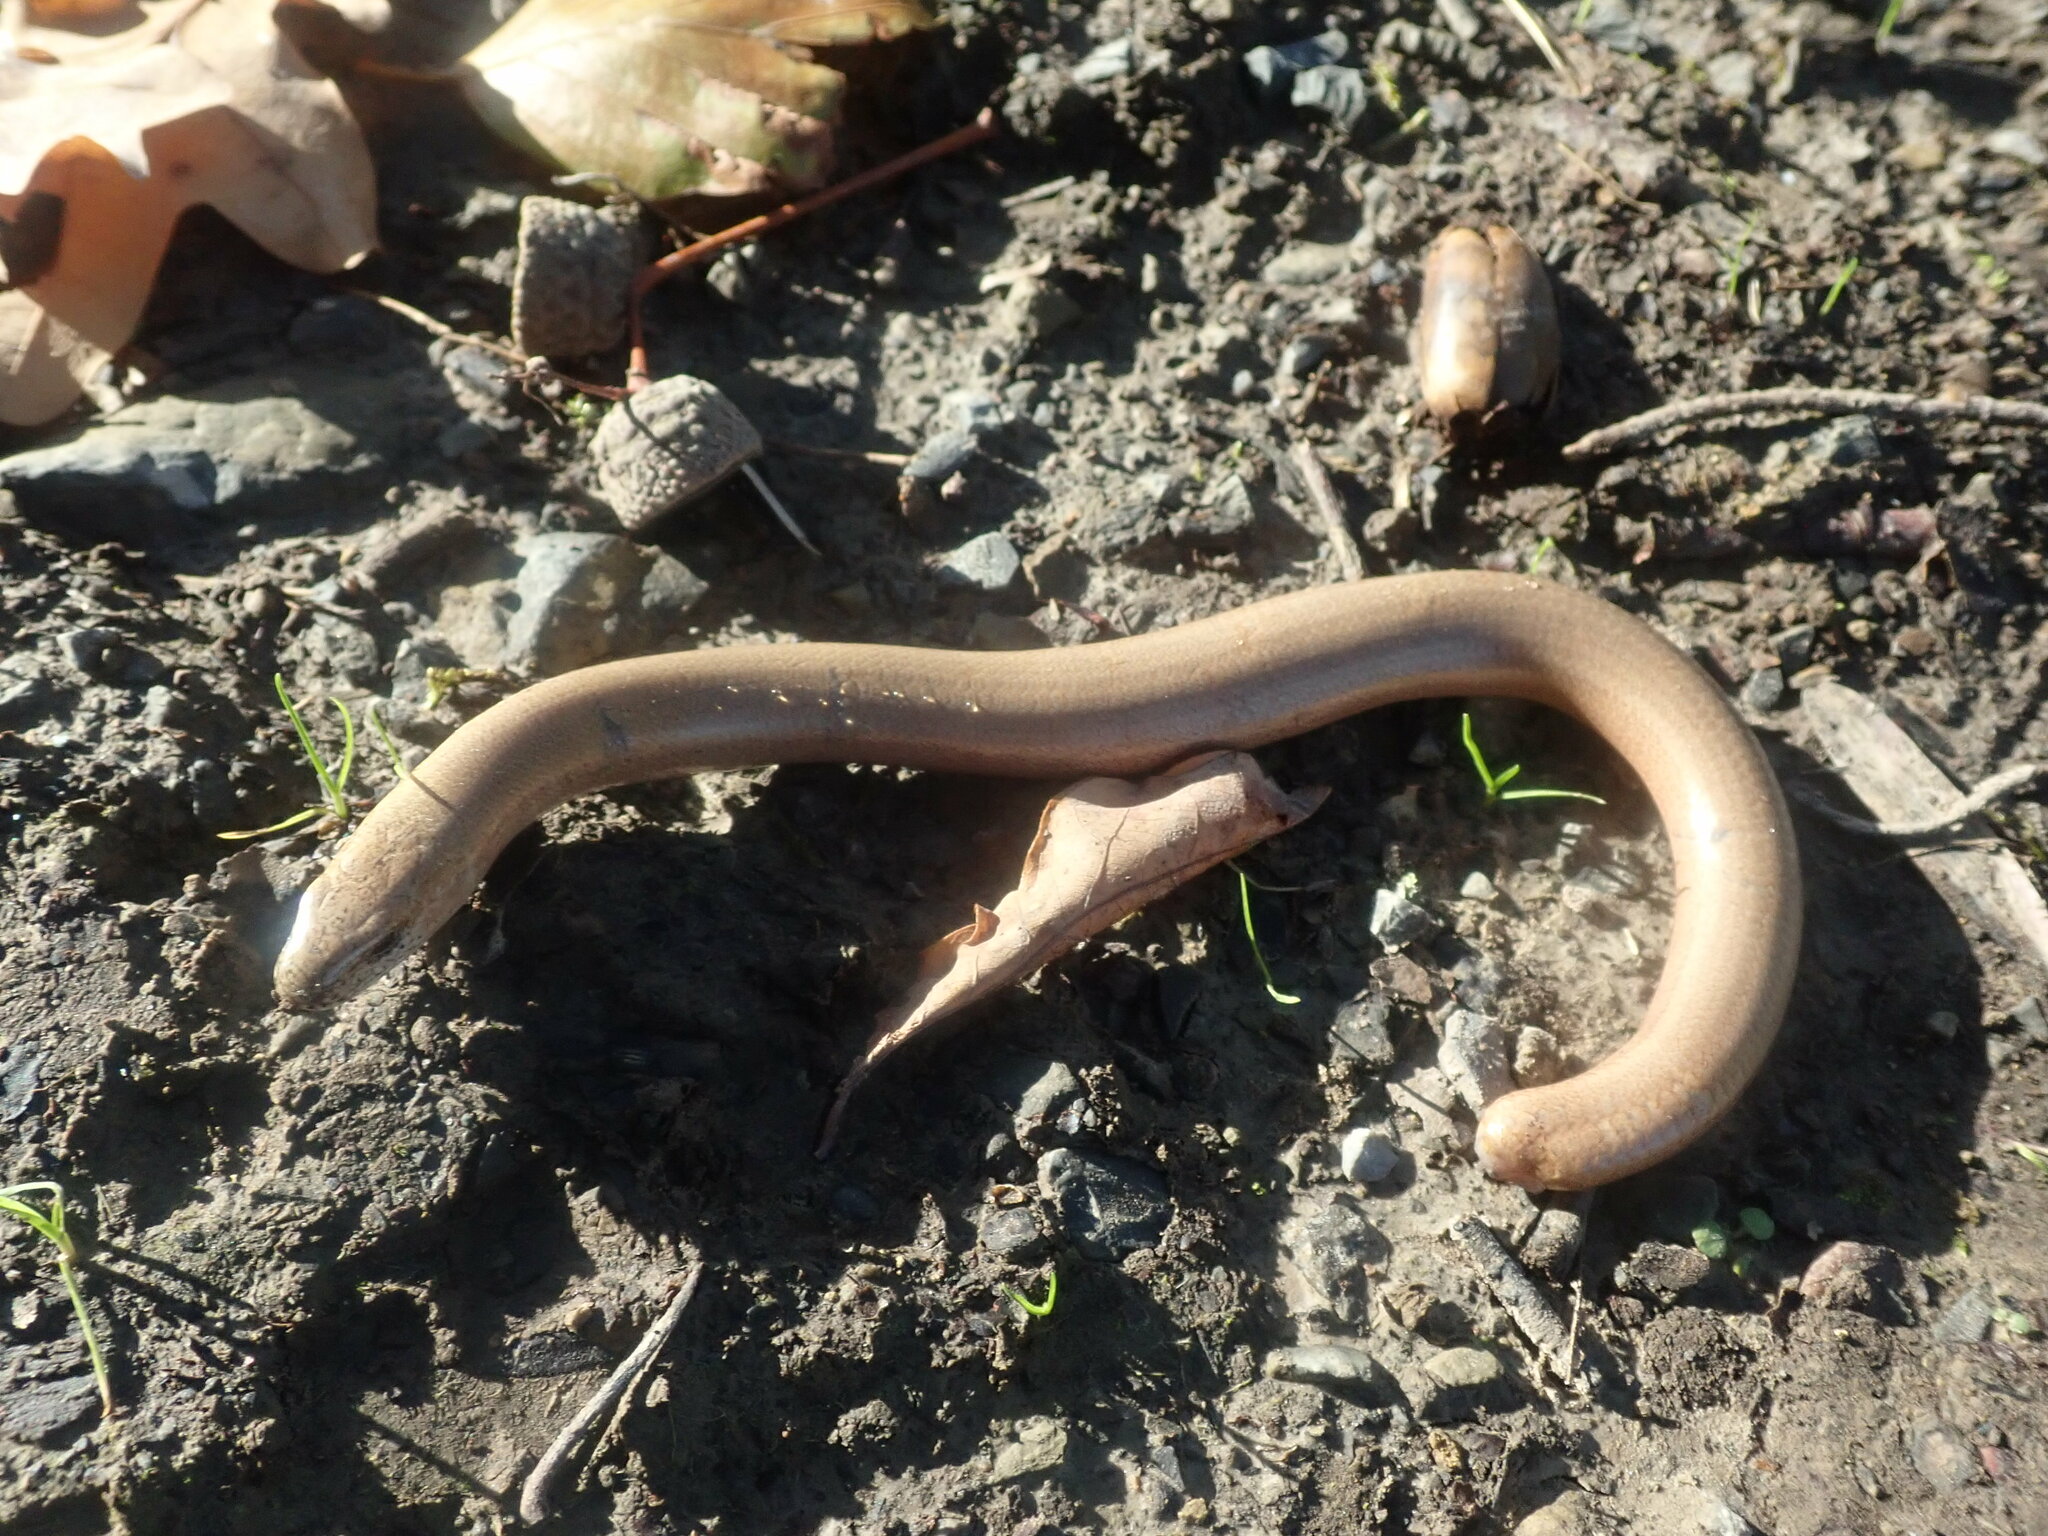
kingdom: Animalia
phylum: Chordata
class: Squamata
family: Anguidae
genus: Anguis
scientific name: Anguis fragilis
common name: Slow worm
